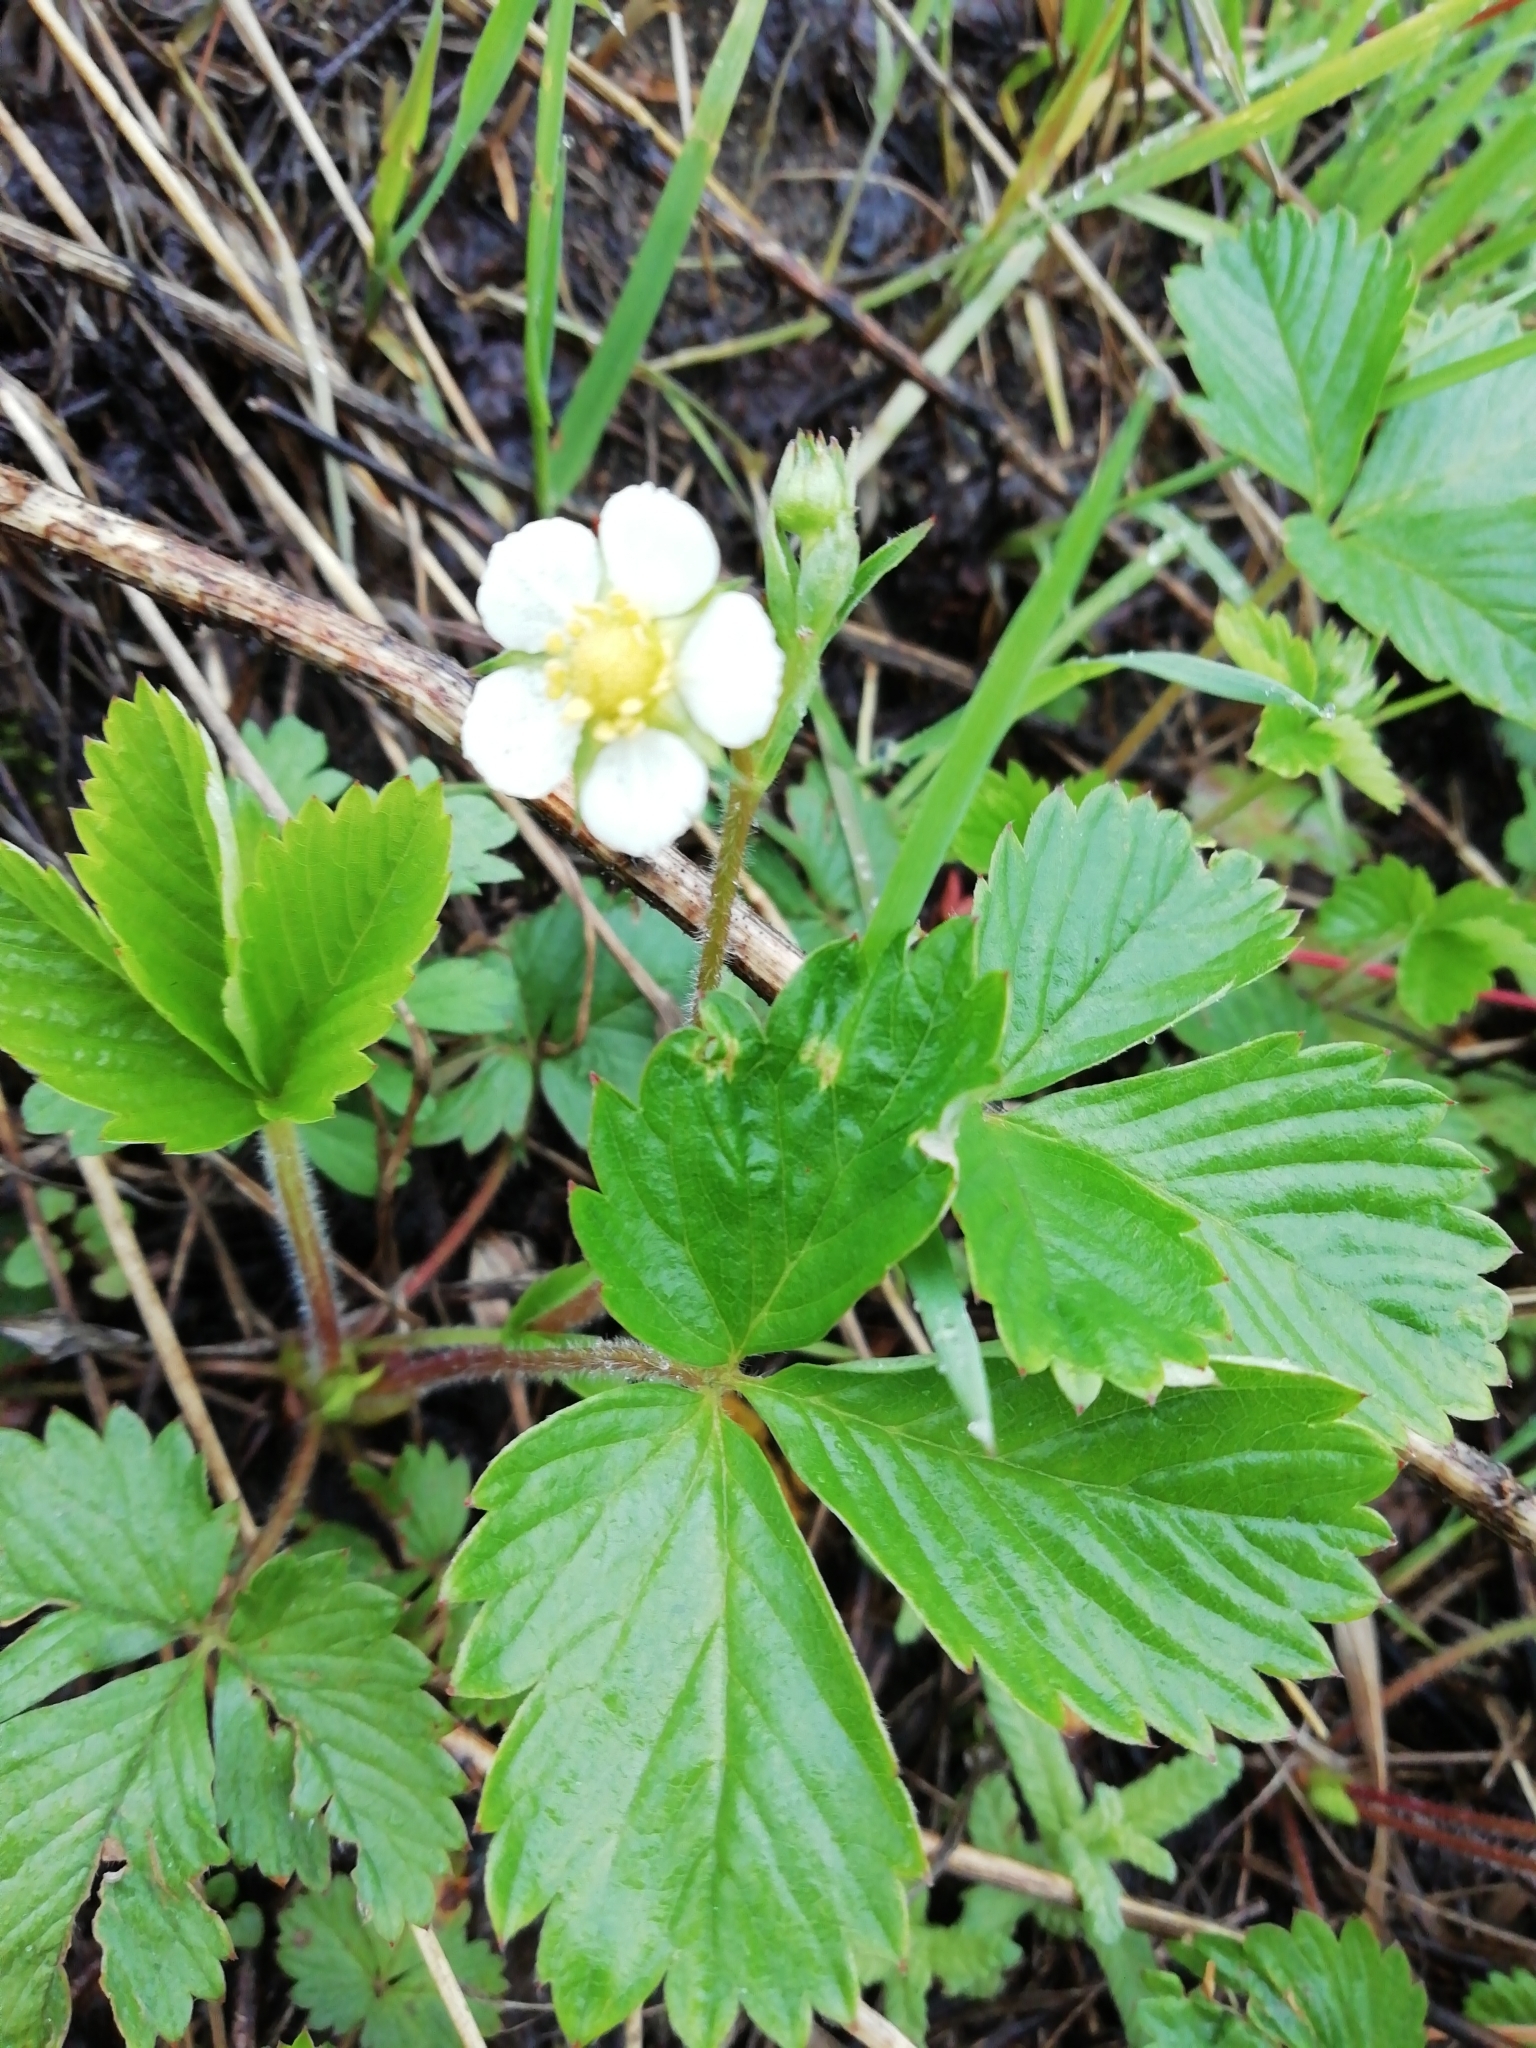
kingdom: Plantae
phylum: Tracheophyta
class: Magnoliopsida
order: Rosales
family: Rosaceae
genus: Fragaria
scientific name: Fragaria vesca
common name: Wild strawberry
